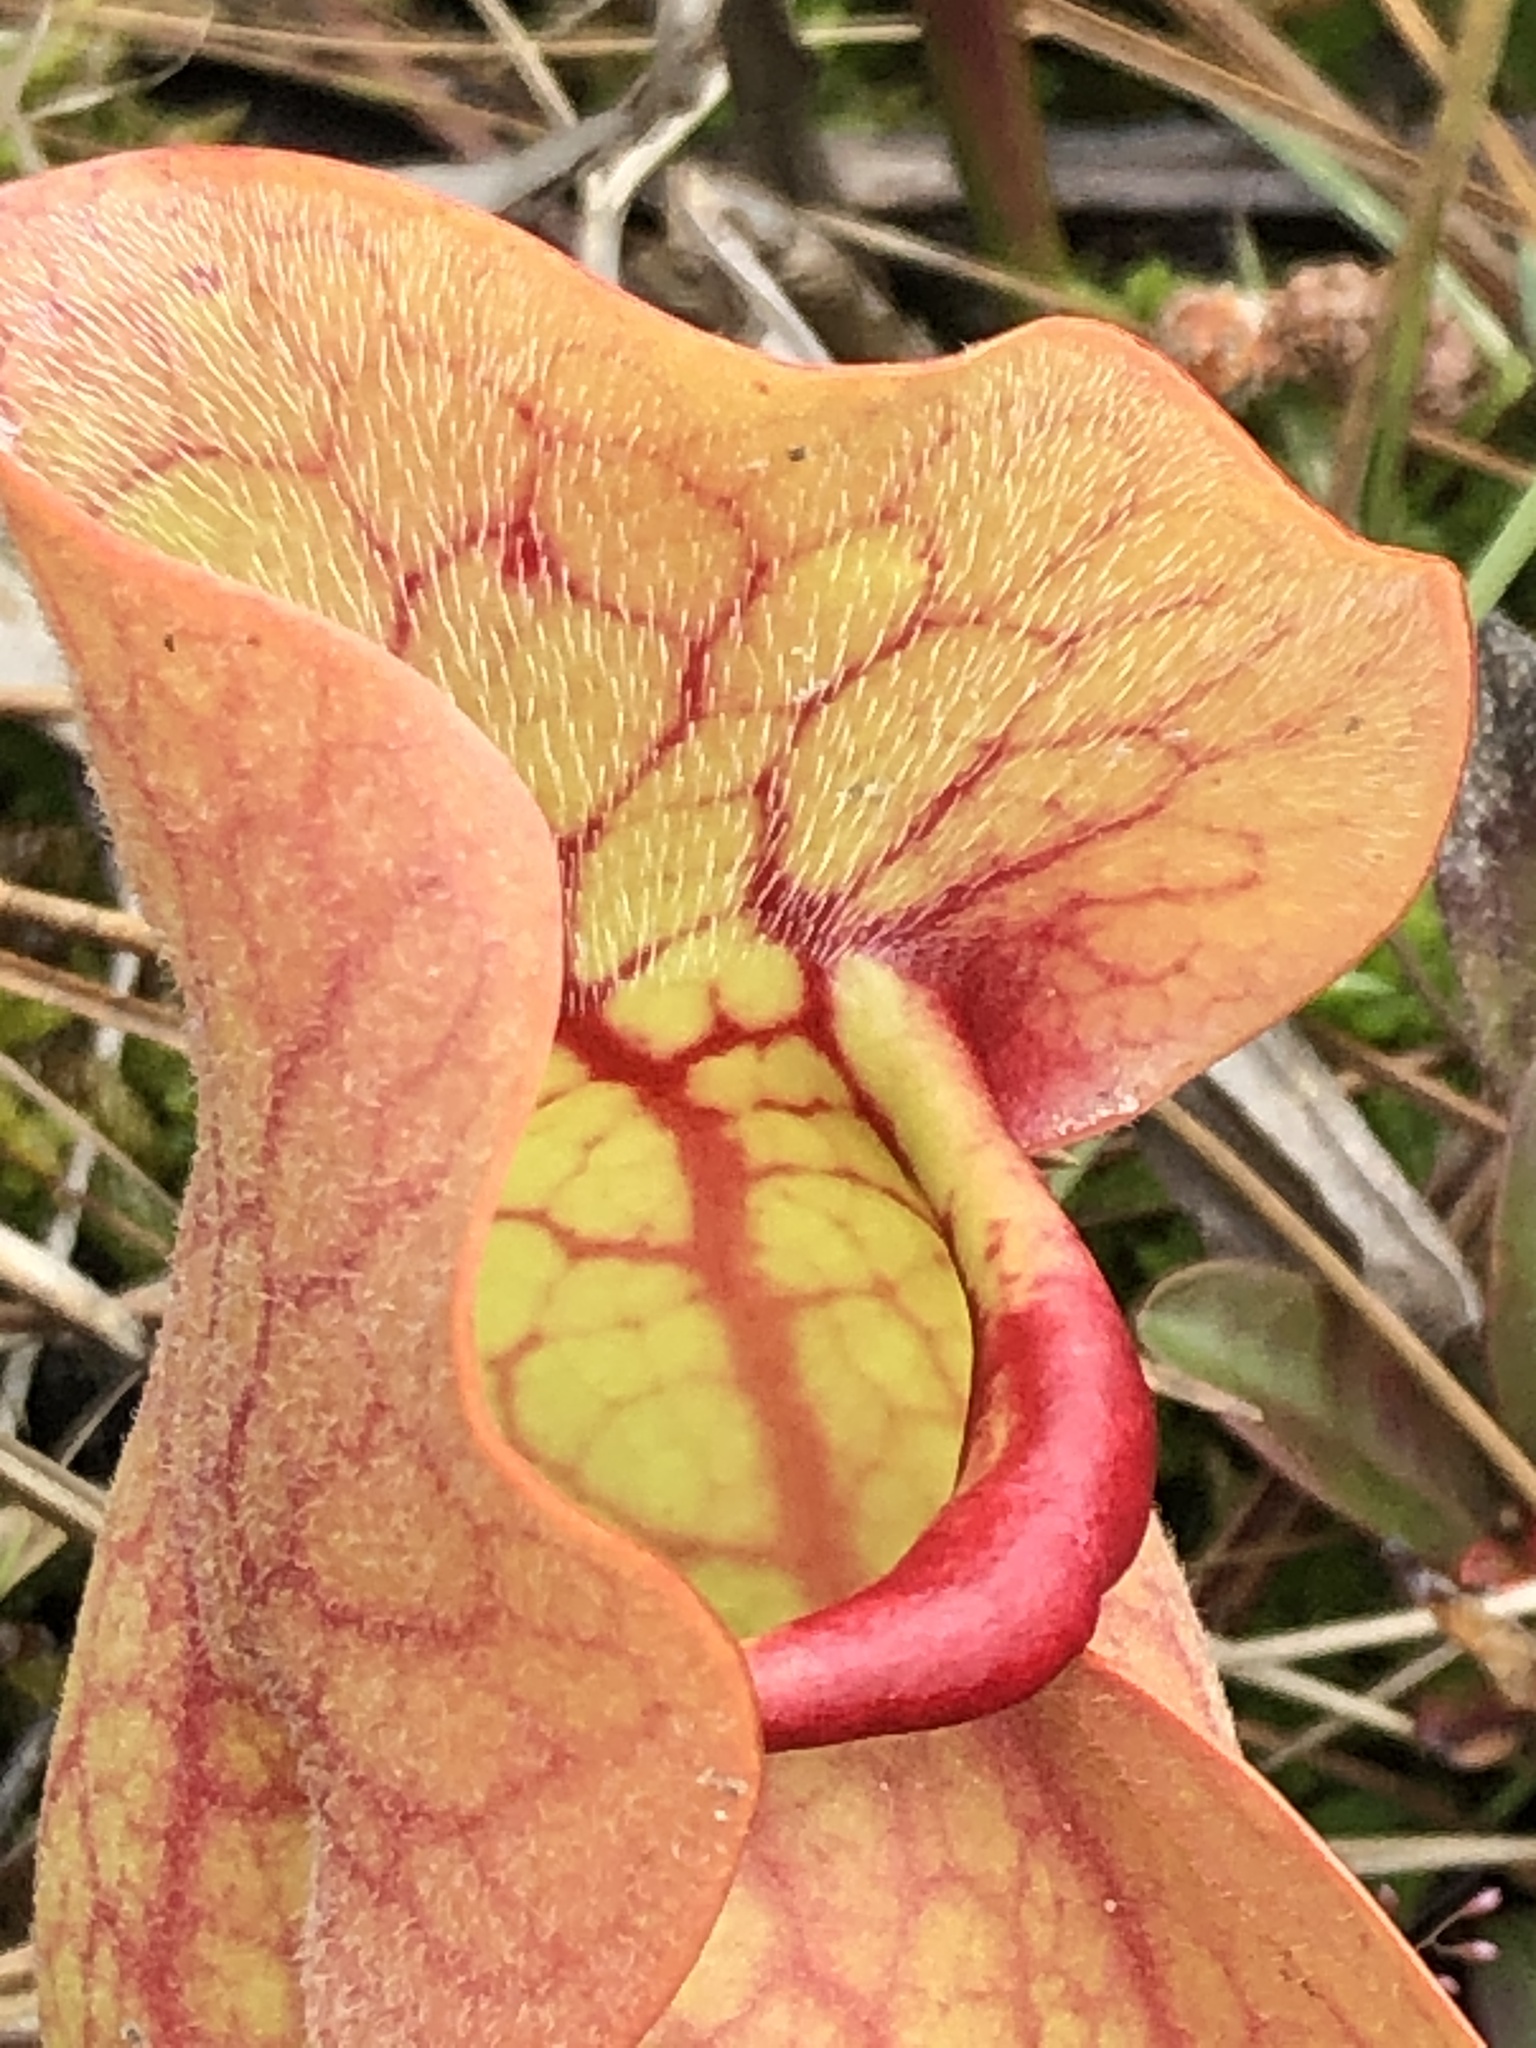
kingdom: Plantae
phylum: Tracheophyta
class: Magnoliopsida
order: Ericales
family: Sarraceniaceae
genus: Sarracenia
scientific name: Sarracenia rosea
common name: Pink pitcherplant
